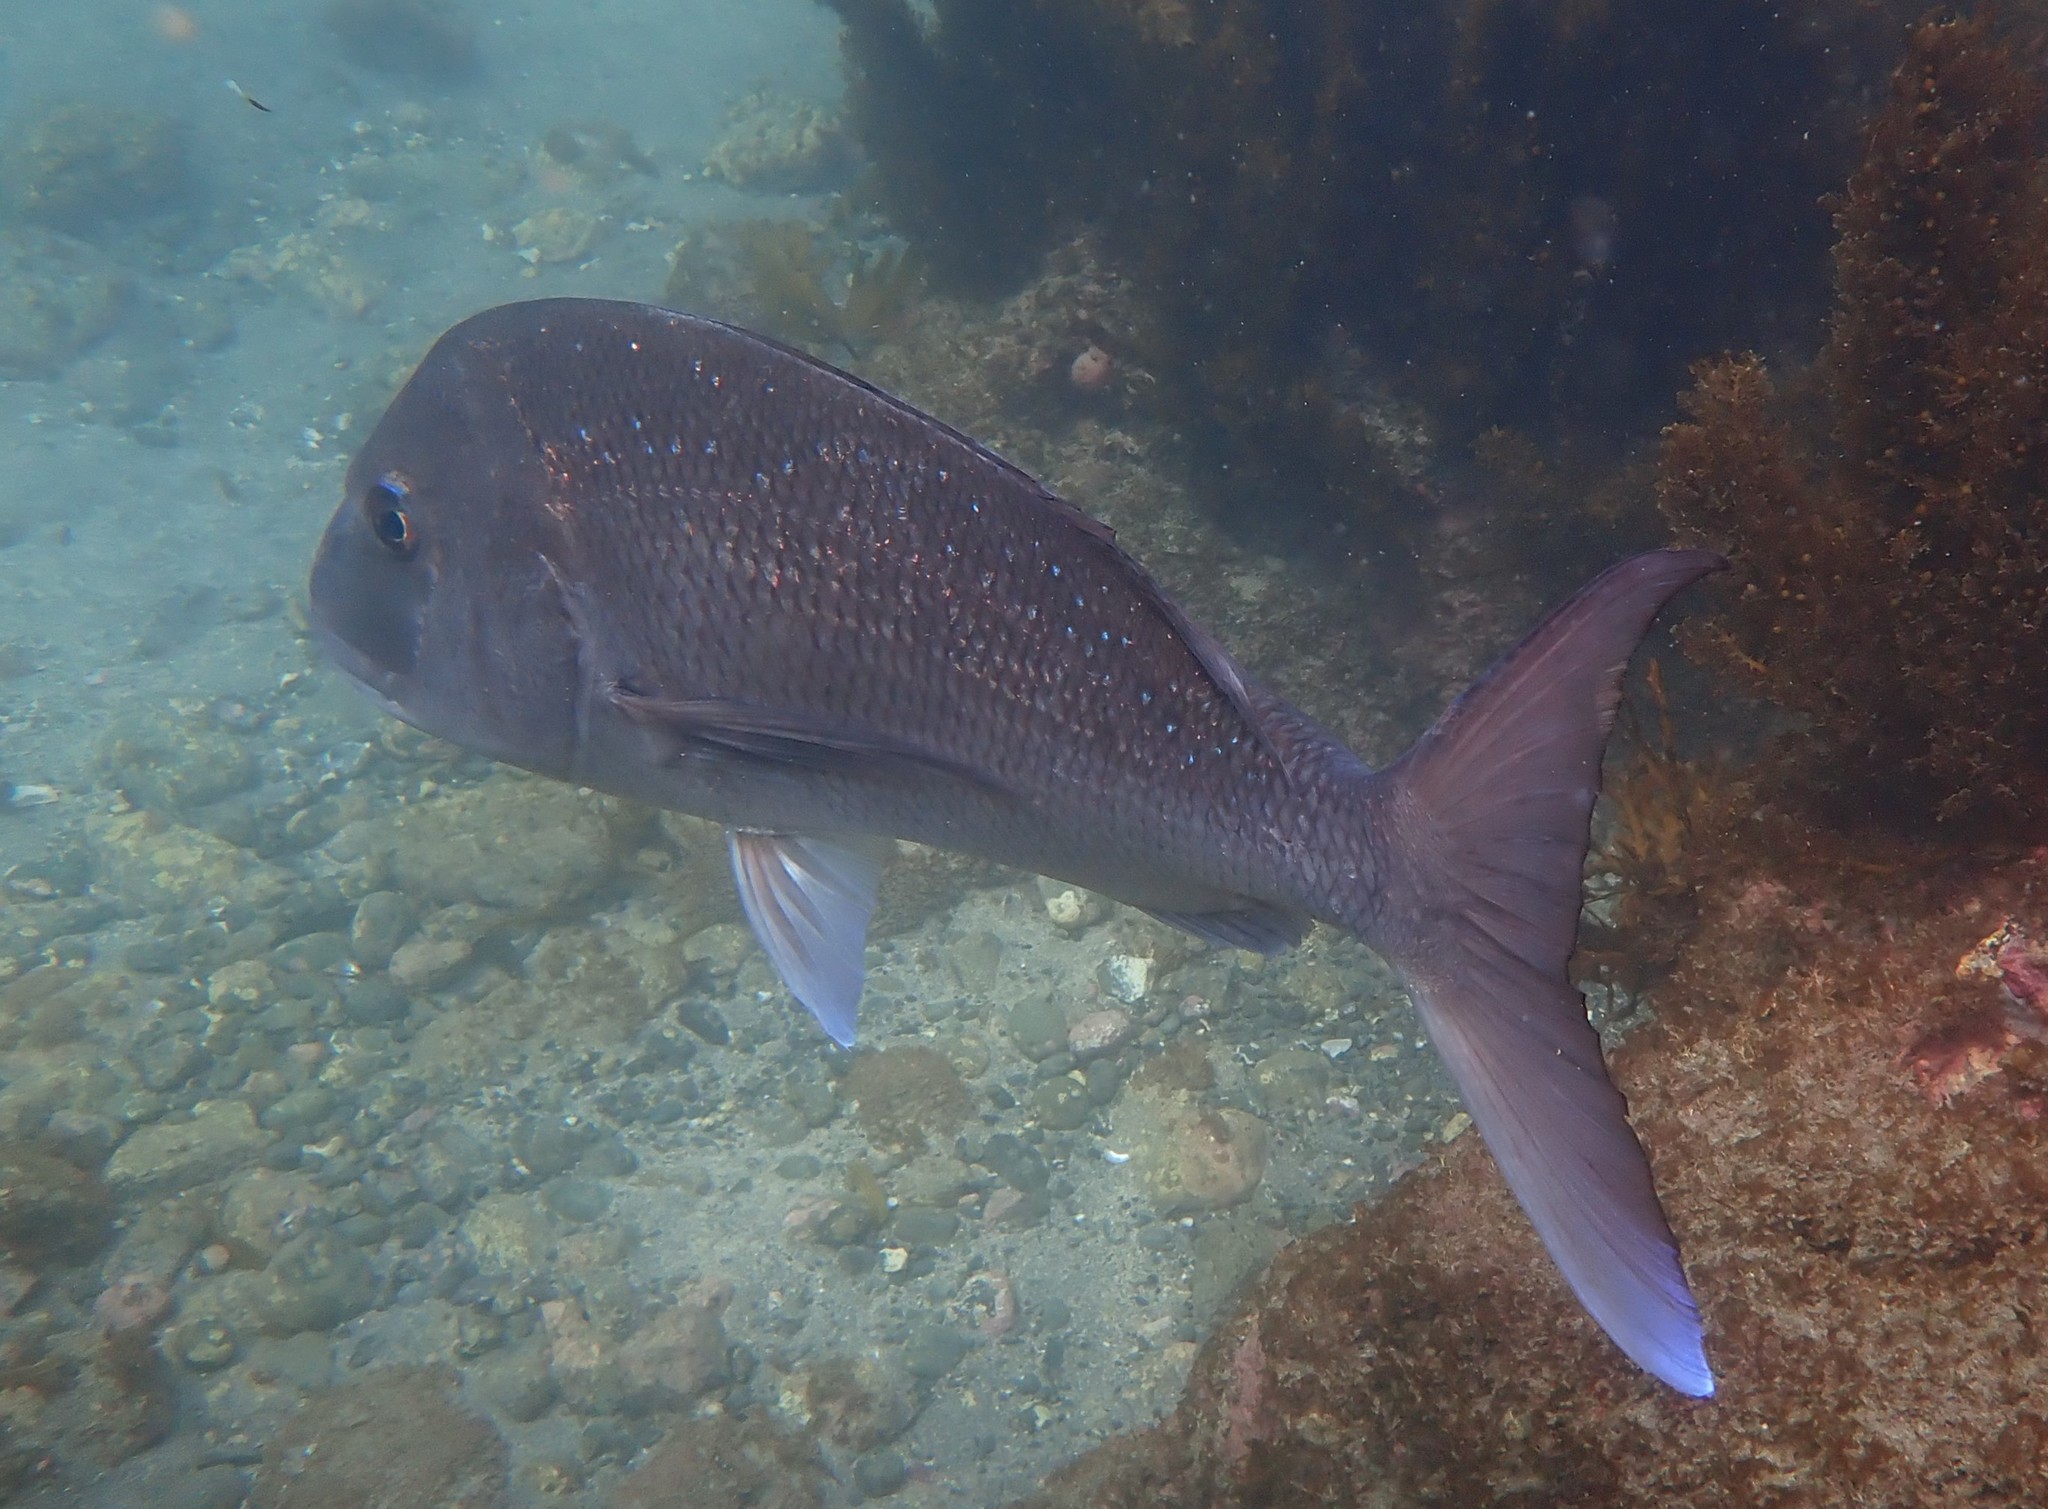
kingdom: Animalia
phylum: Chordata
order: Perciformes
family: Sparidae
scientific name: Sparidae
